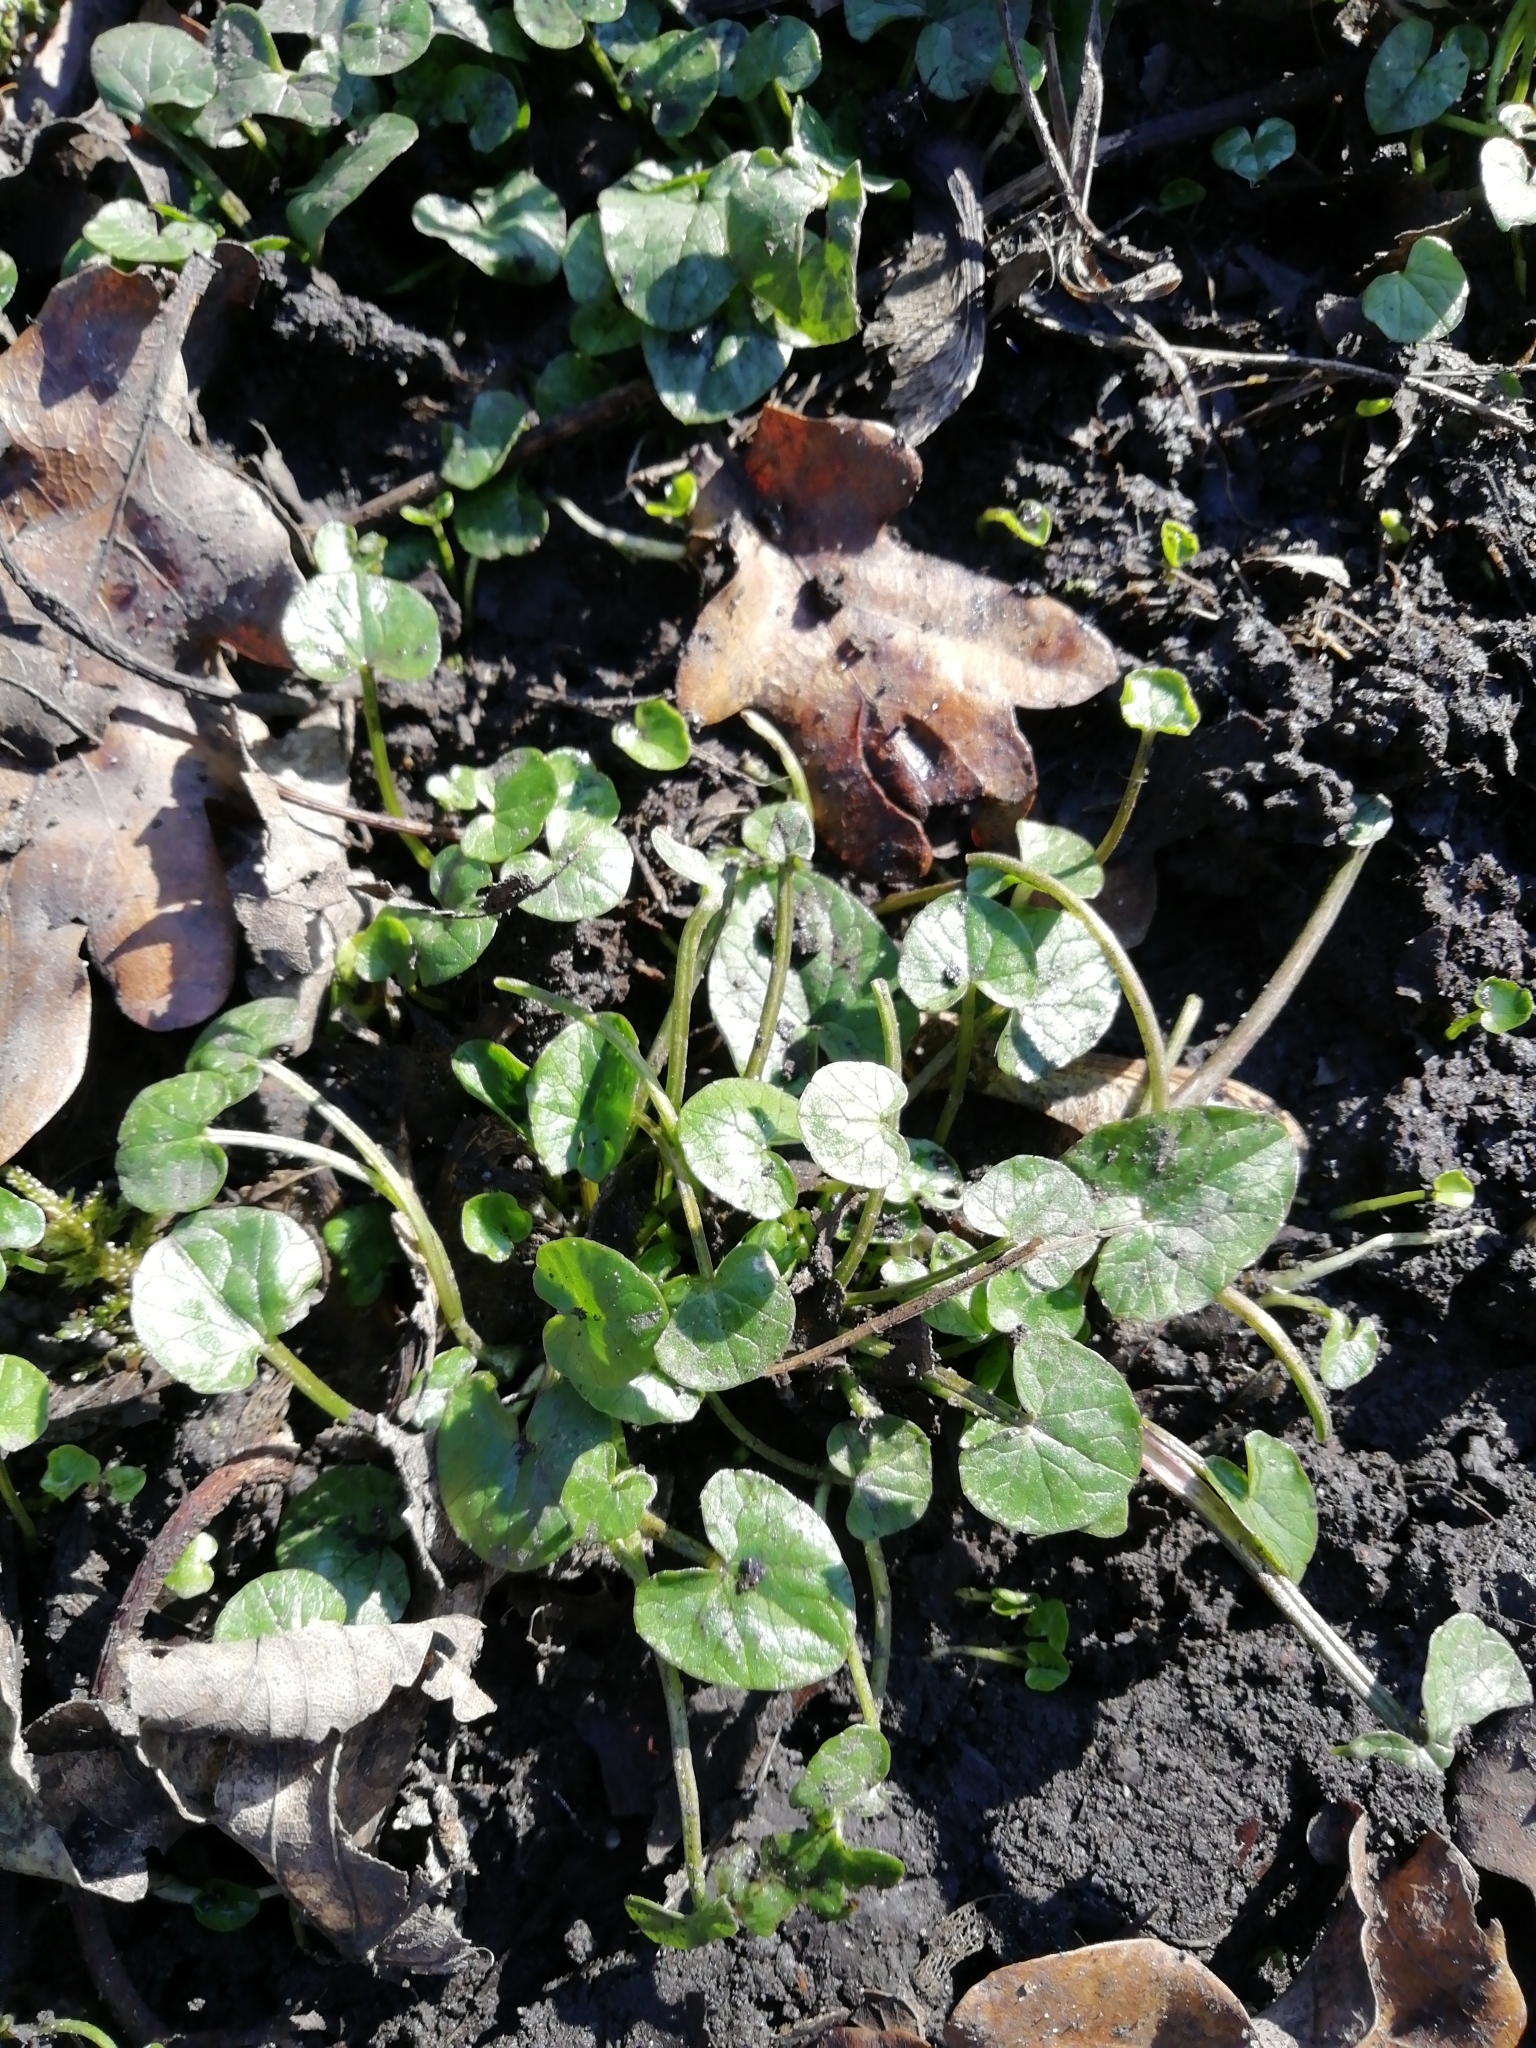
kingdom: Plantae
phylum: Tracheophyta
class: Magnoliopsida
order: Ranunculales
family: Ranunculaceae
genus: Ficaria
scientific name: Ficaria verna
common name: Lesser celandine
